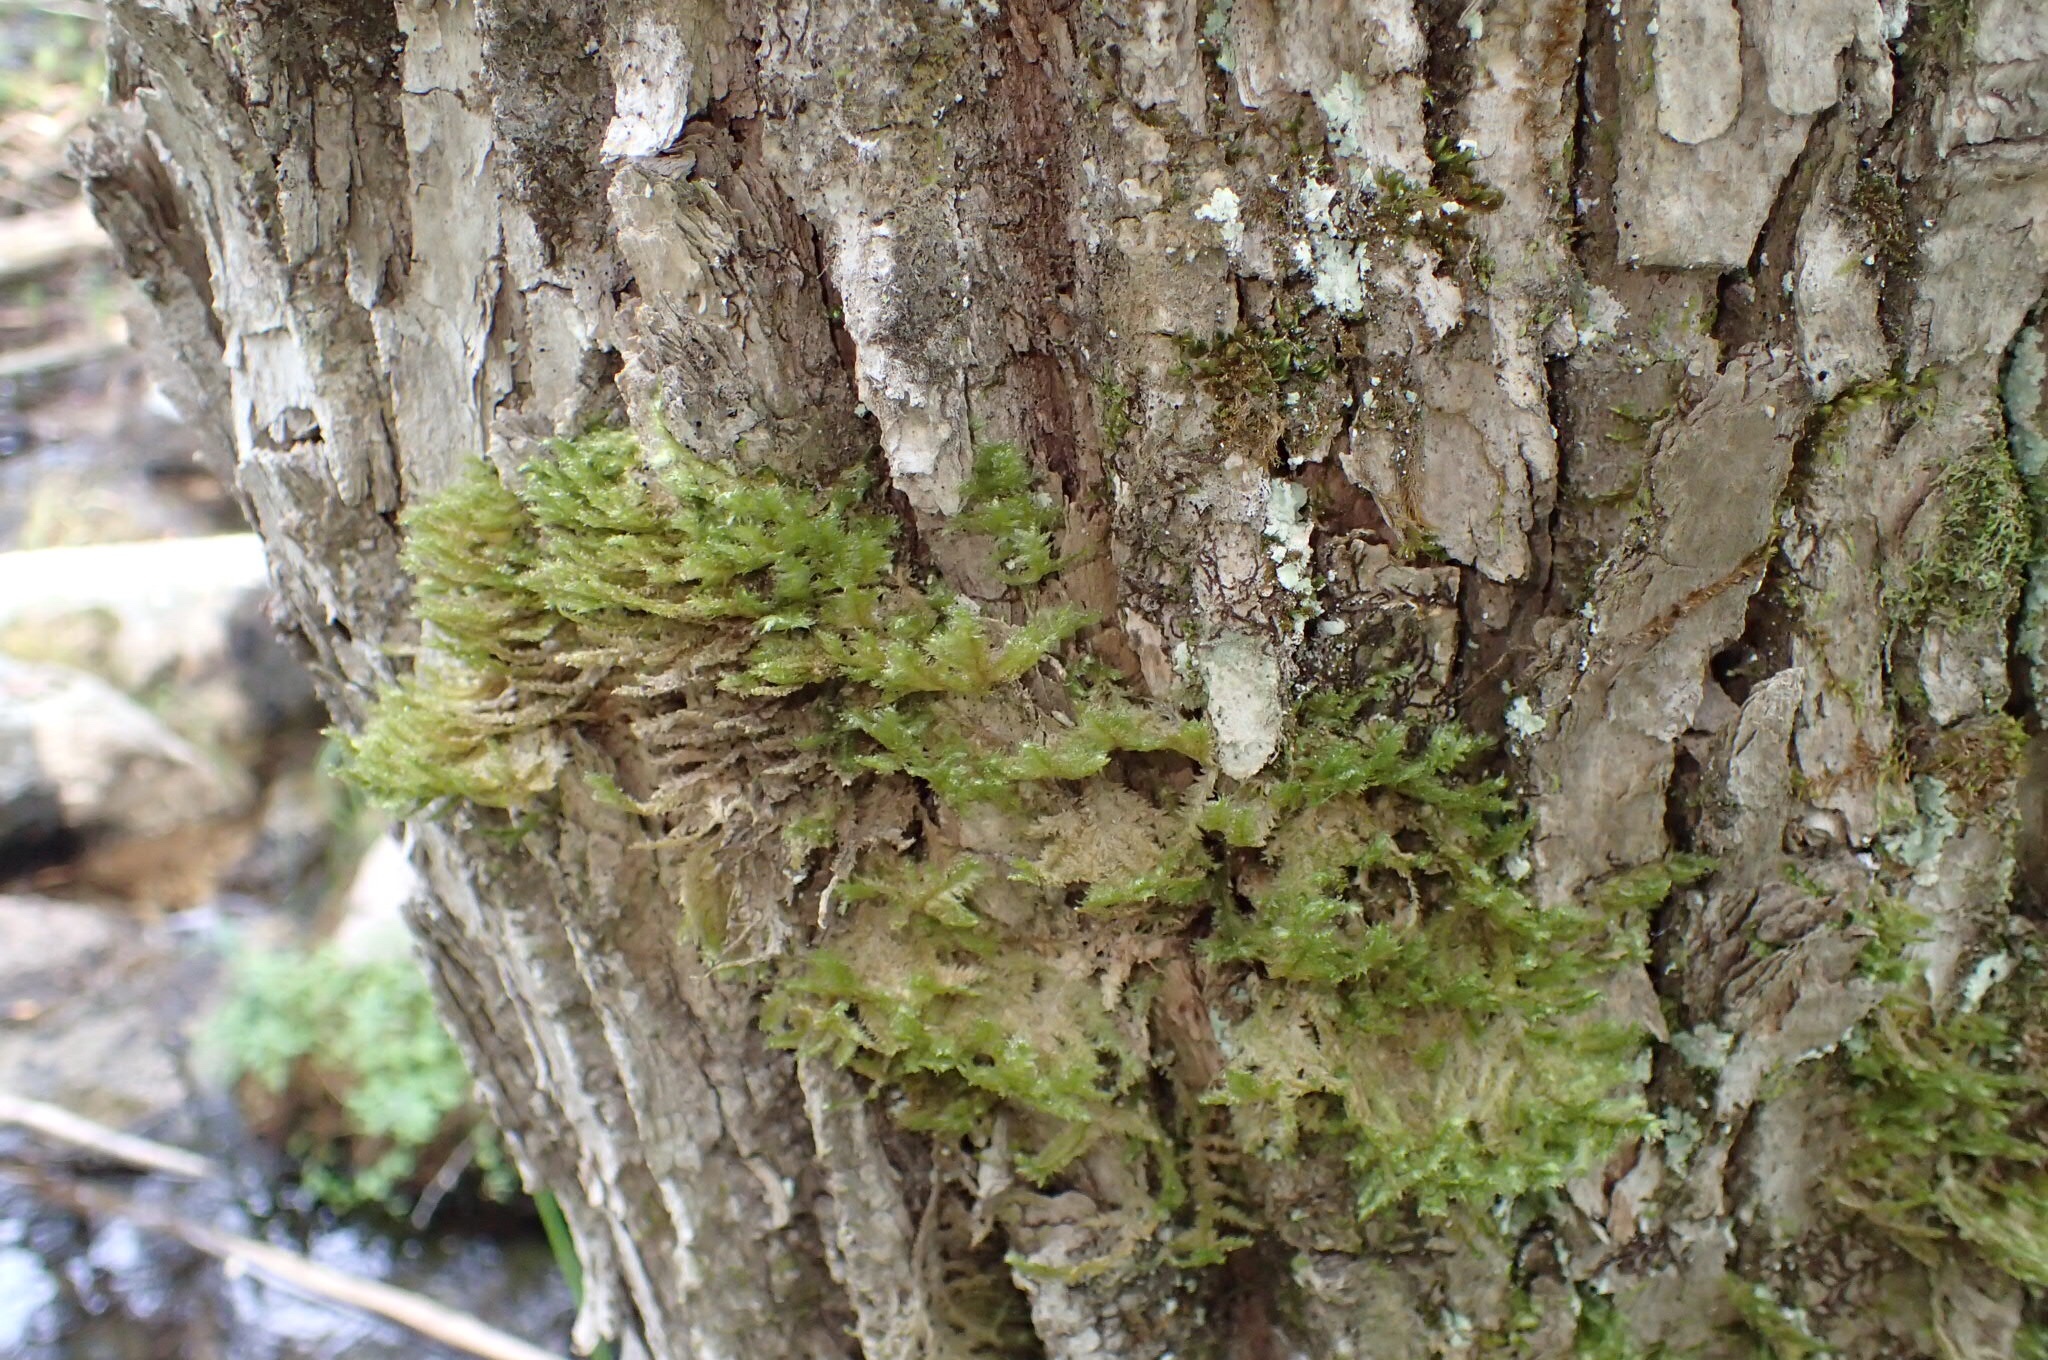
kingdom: Plantae
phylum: Bryophyta
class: Bryopsida
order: Hypnales
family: Neckeraceae
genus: Neckera
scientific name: Neckera pennata
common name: Feathery neckera
